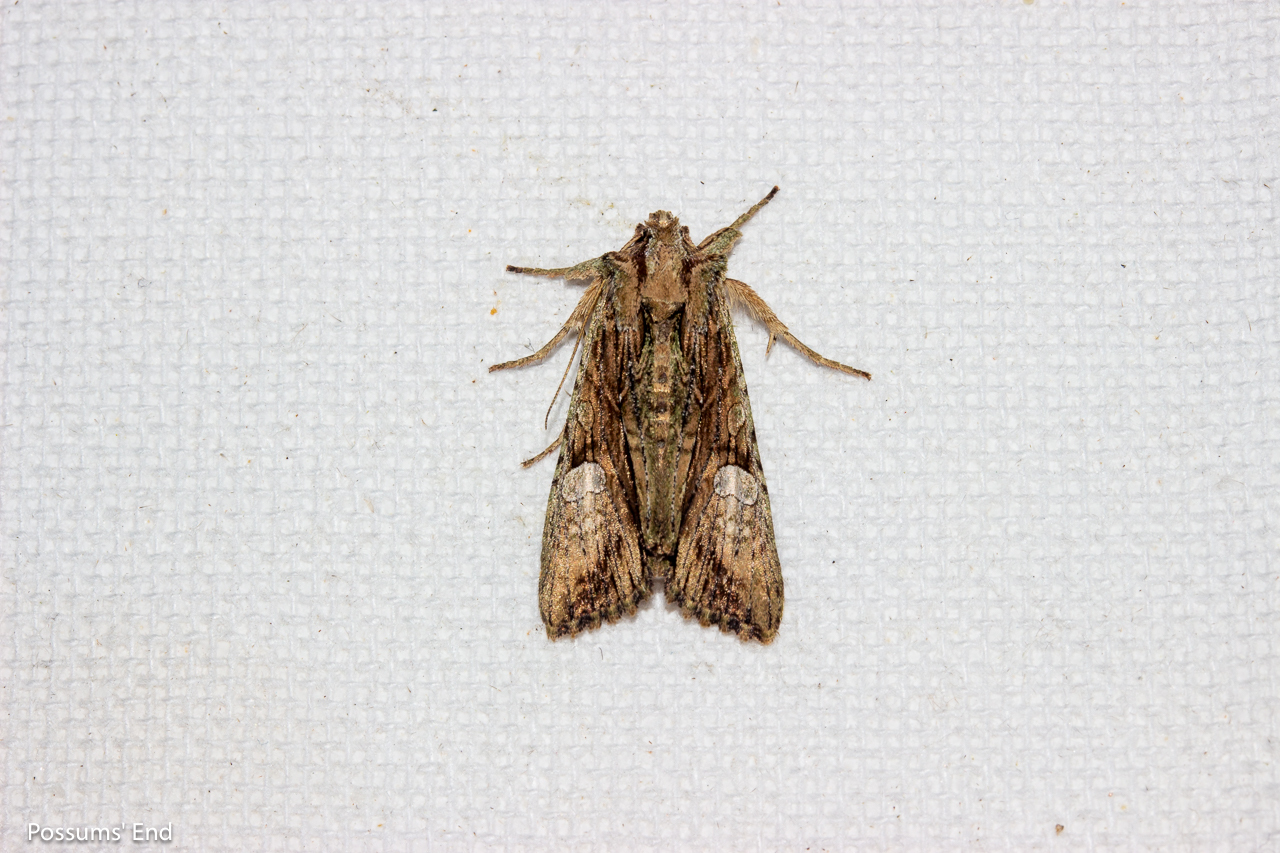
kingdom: Animalia
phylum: Arthropoda
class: Insecta
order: Lepidoptera
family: Noctuidae
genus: Meterana
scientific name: Meterana decorata
